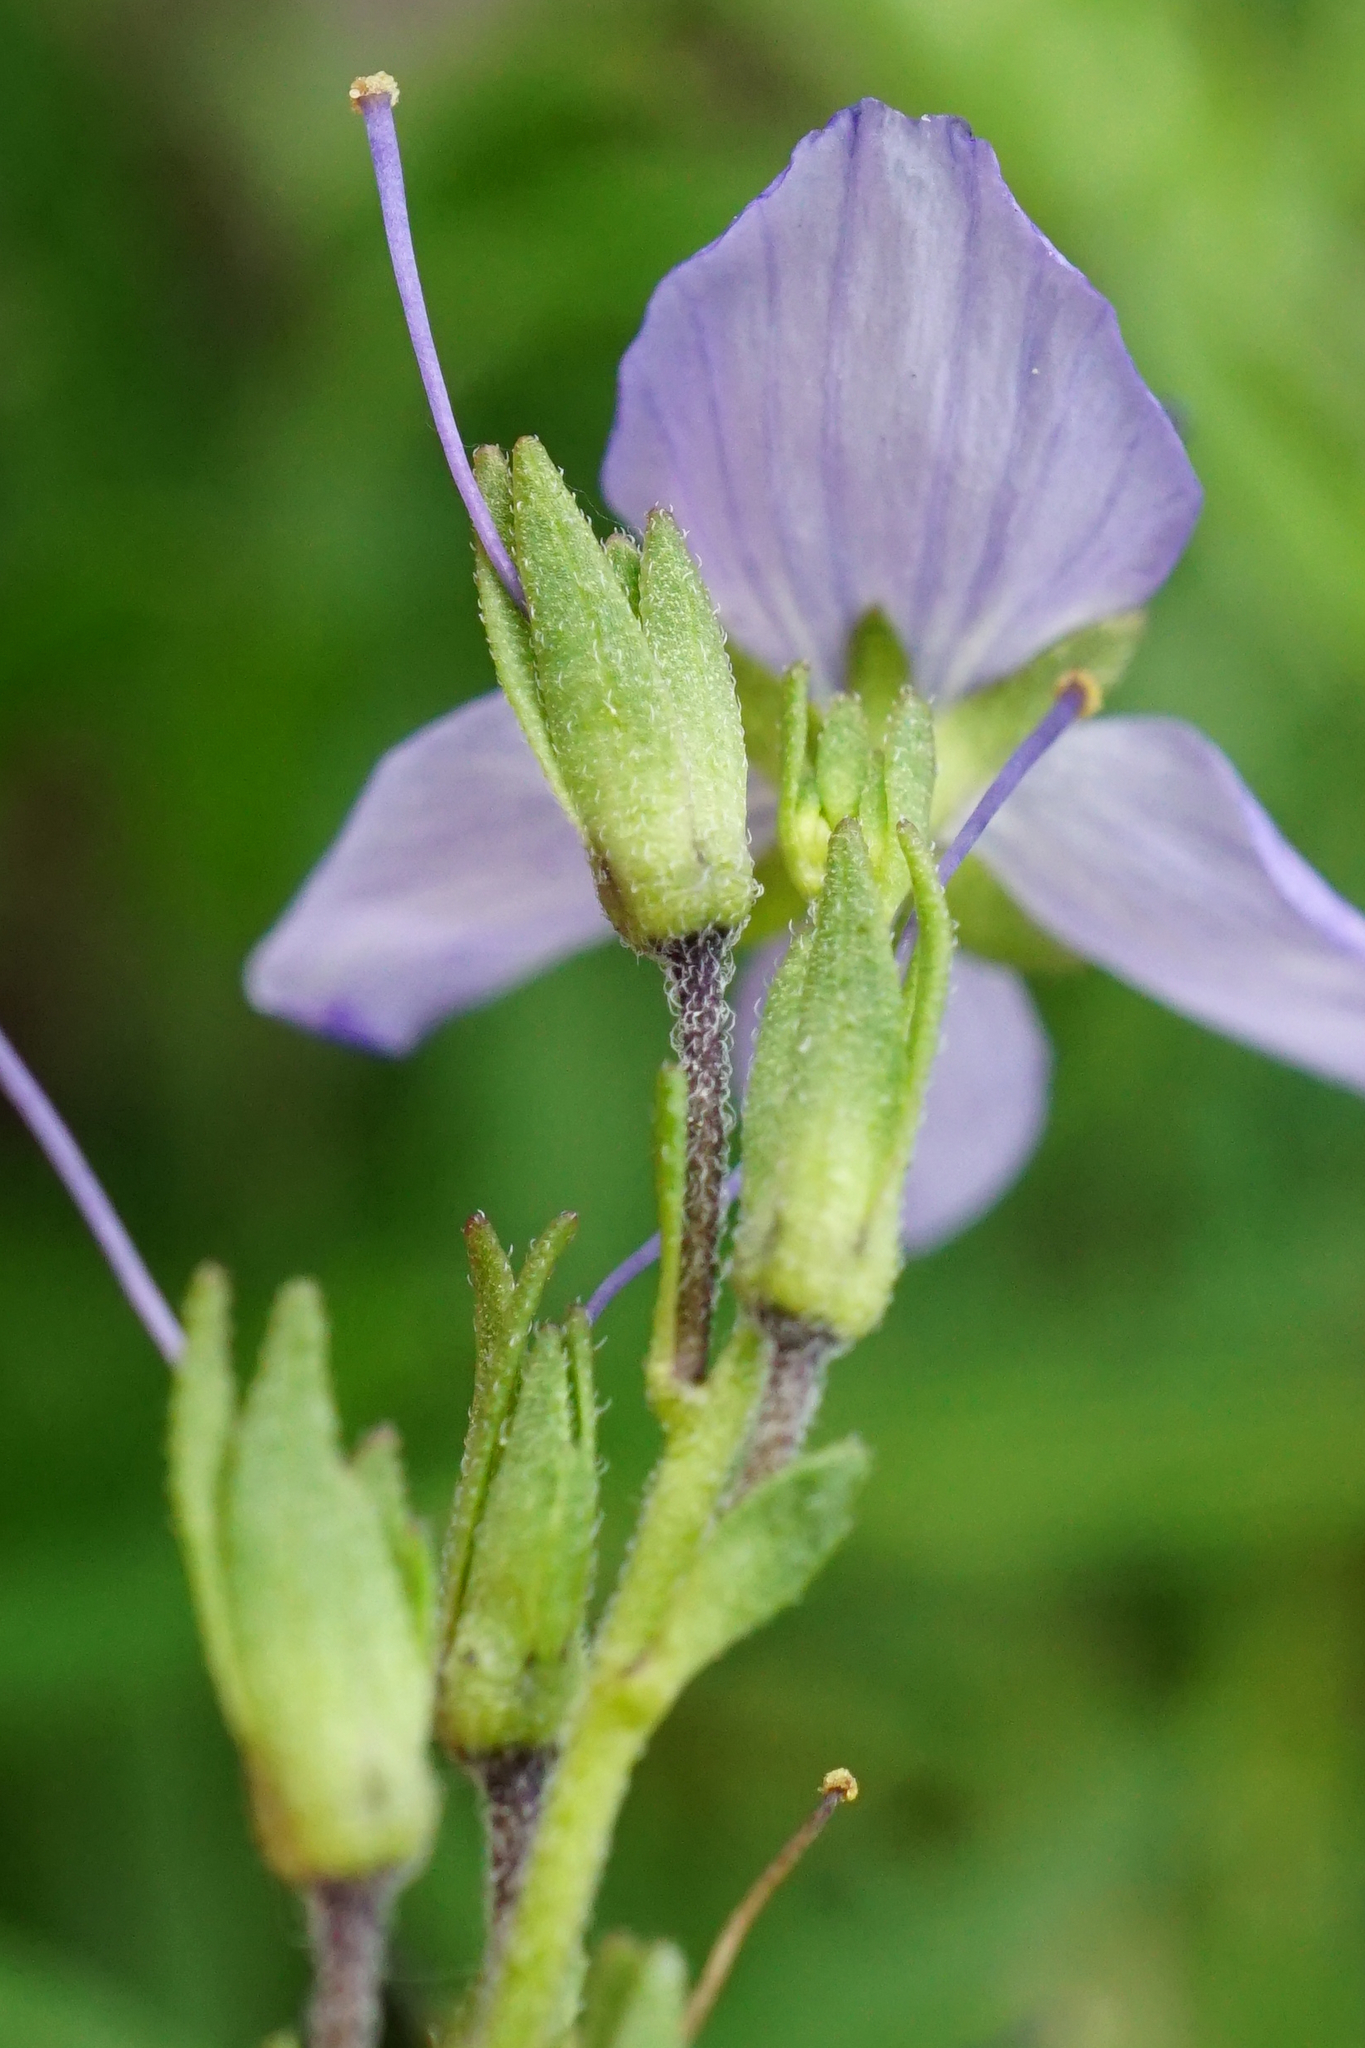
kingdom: Plantae
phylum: Tracheophyta
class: Magnoliopsida
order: Lamiales
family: Plantaginaceae
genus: Veronica
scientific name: Veronica austriaca
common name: Large speedwell
